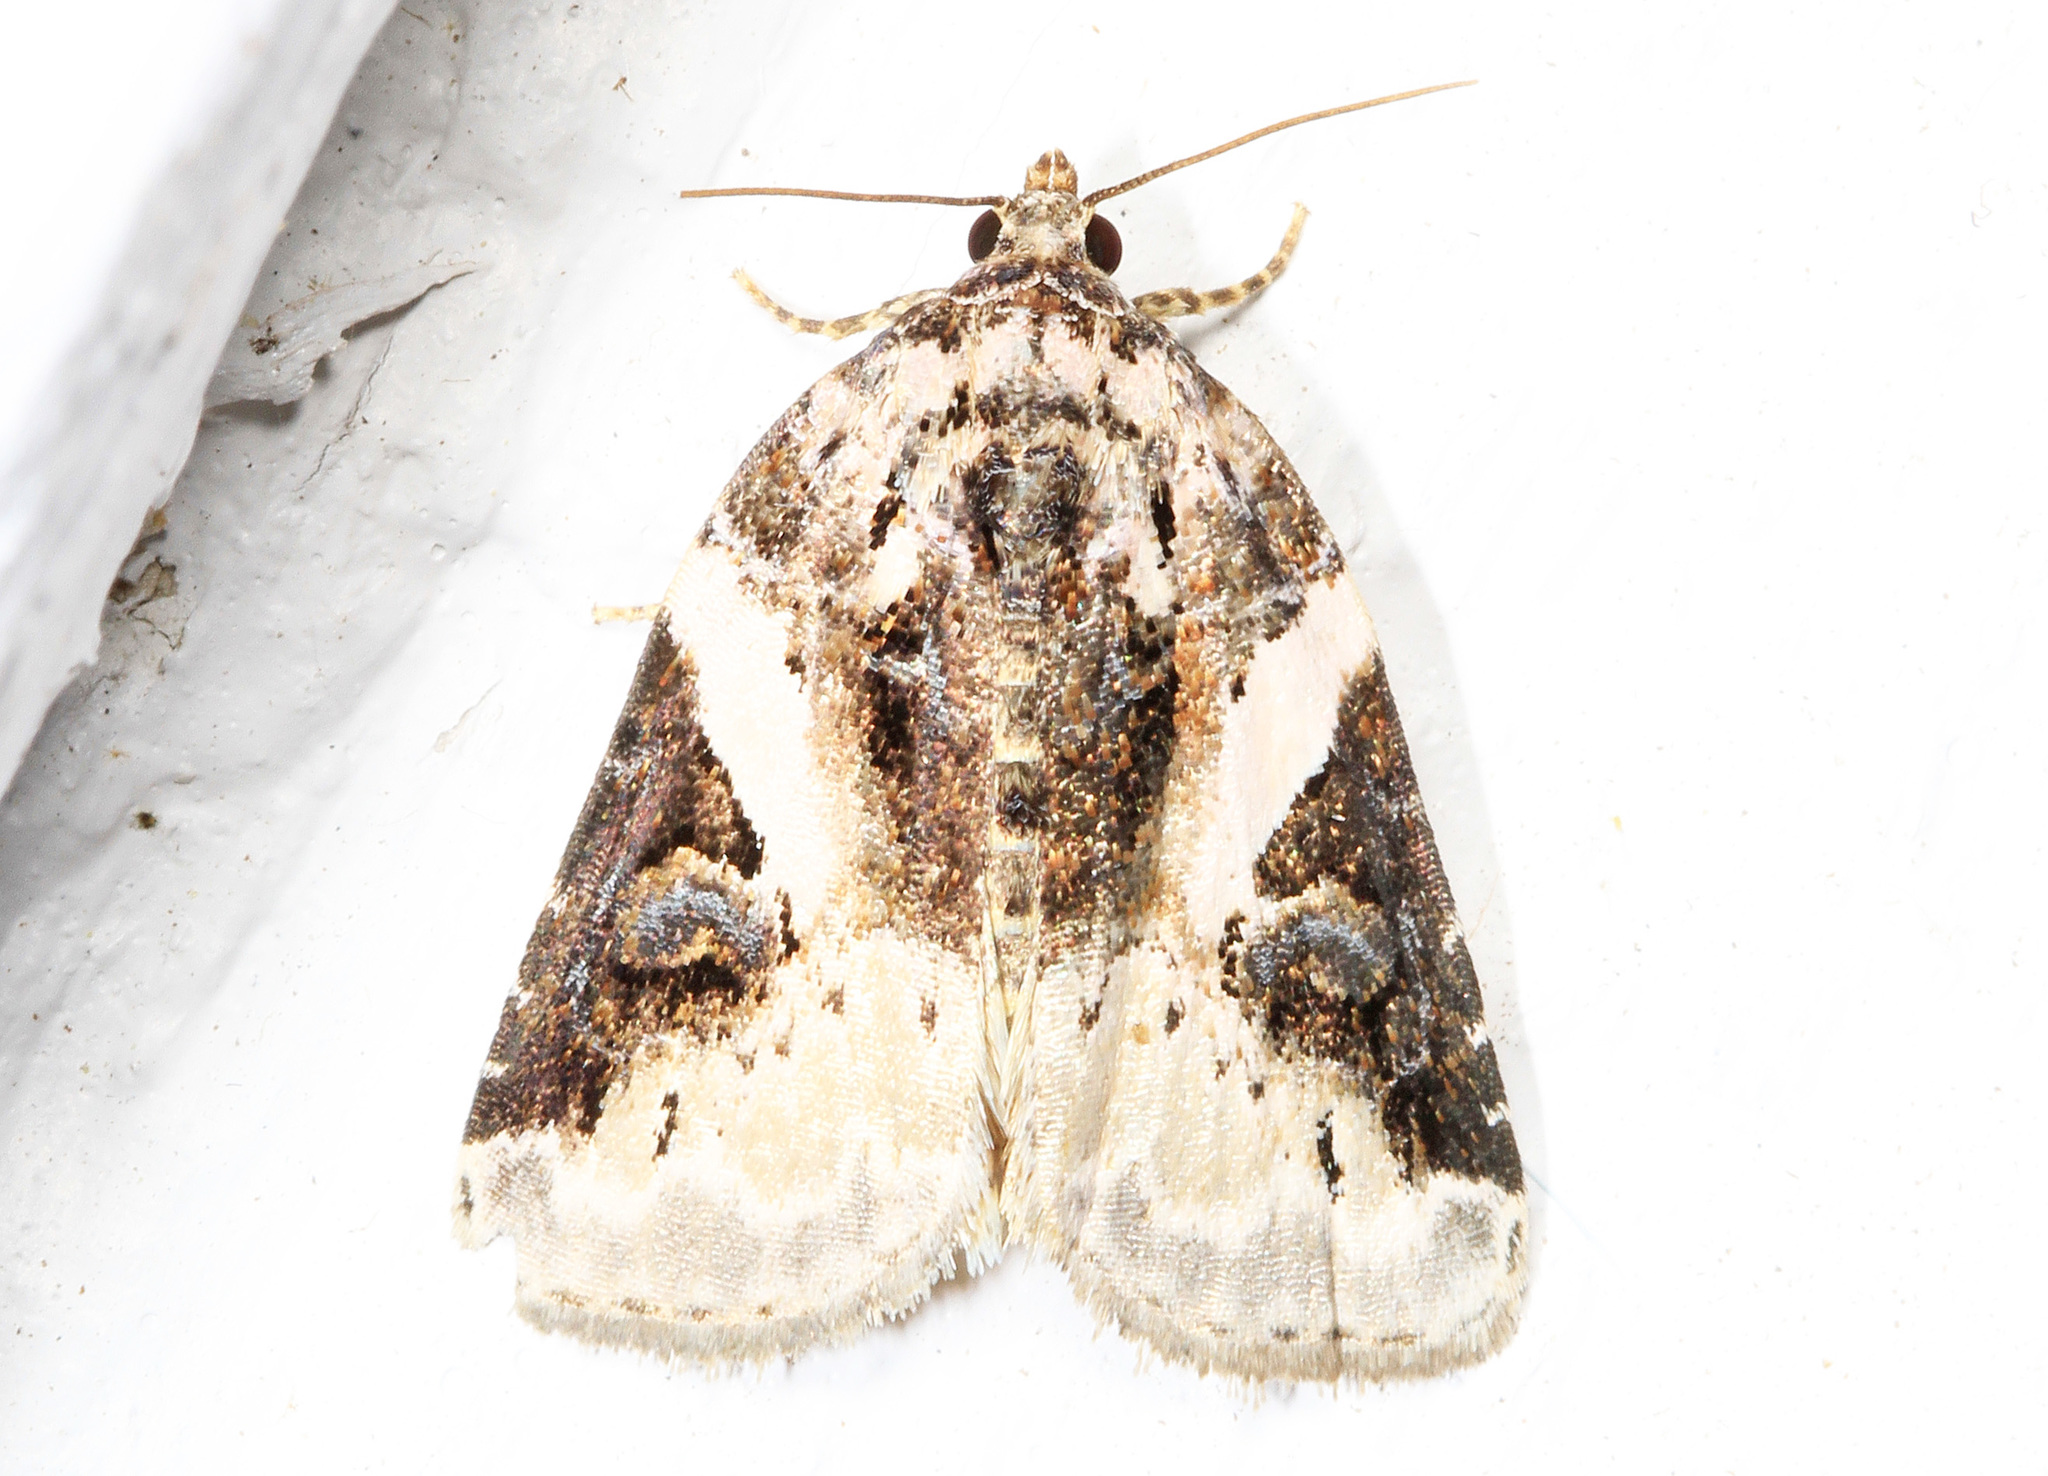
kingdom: Animalia
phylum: Arthropoda
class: Insecta
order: Lepidoptera
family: Noctuidae
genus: Pseudeustrotia
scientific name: Pseudeustrotia carneola
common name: Pink-barred lithacodia moth
